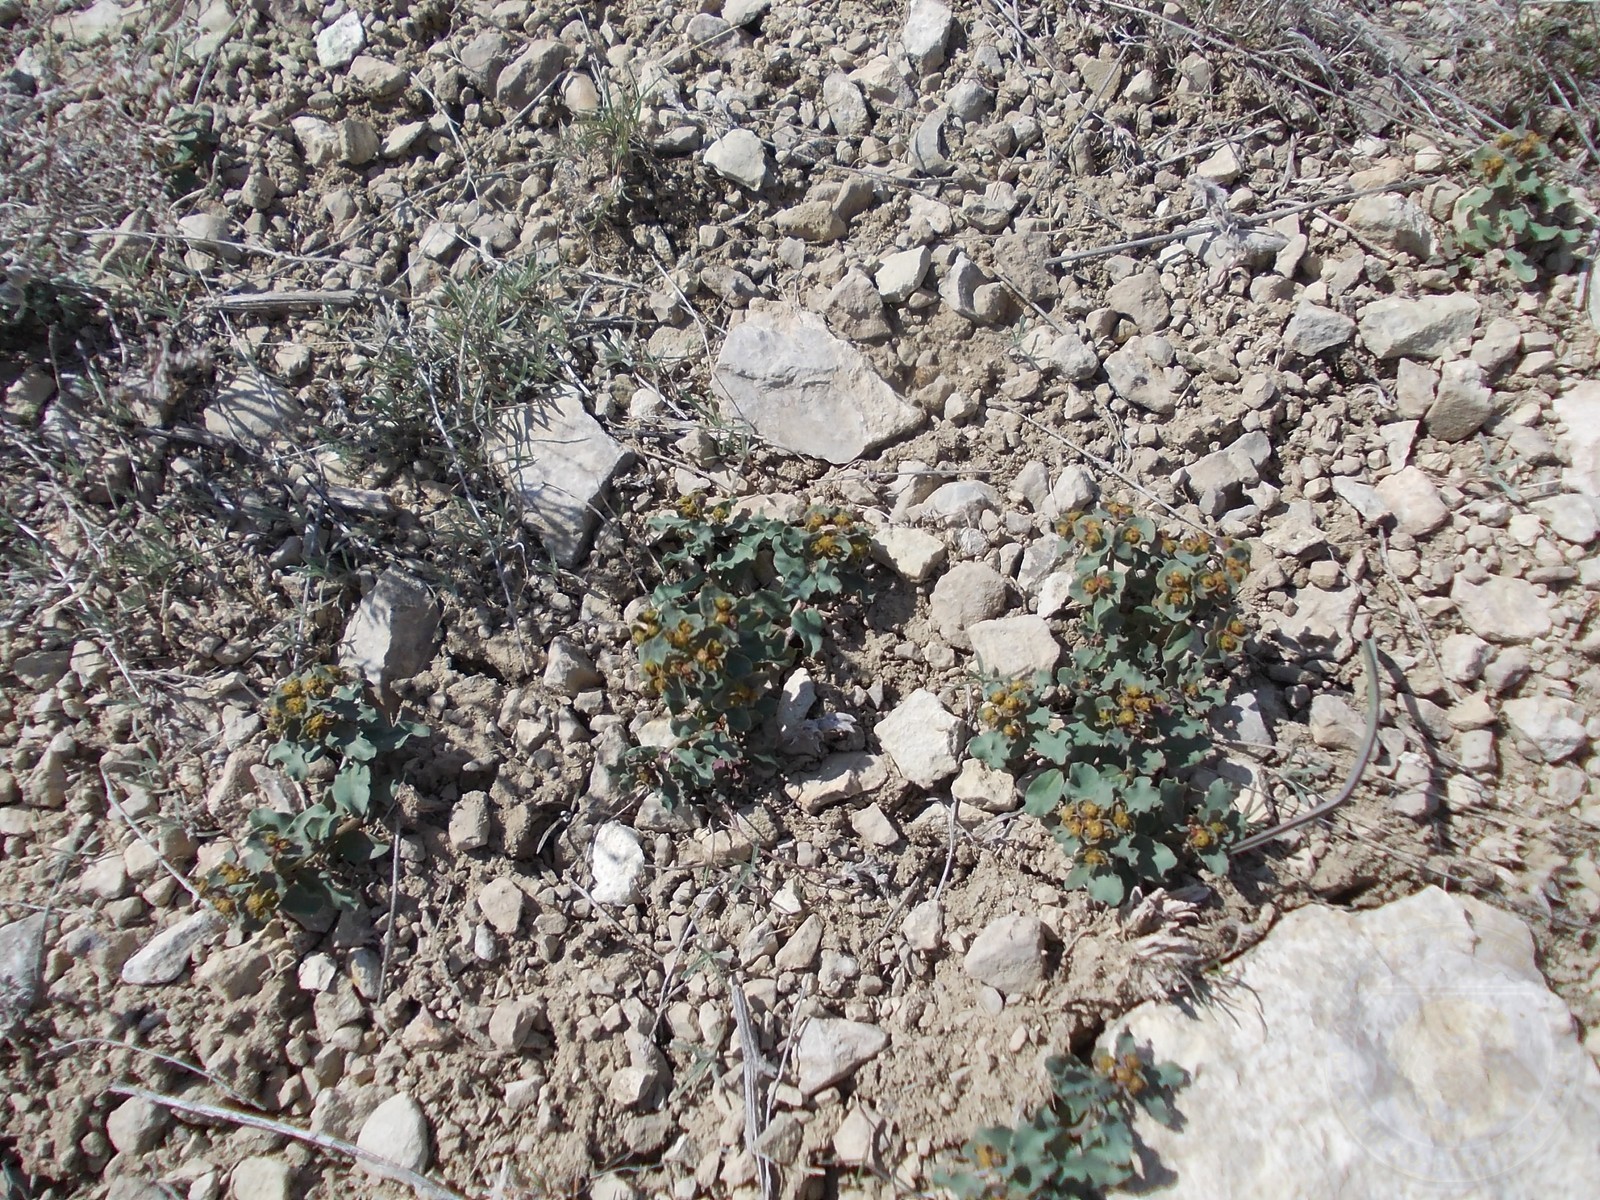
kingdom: Plantae
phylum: Tracheophyta
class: Magnoliopsida
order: Malpighiales
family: Euphorbiaceae
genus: Euphorbia
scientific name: Euphorbia undulata
